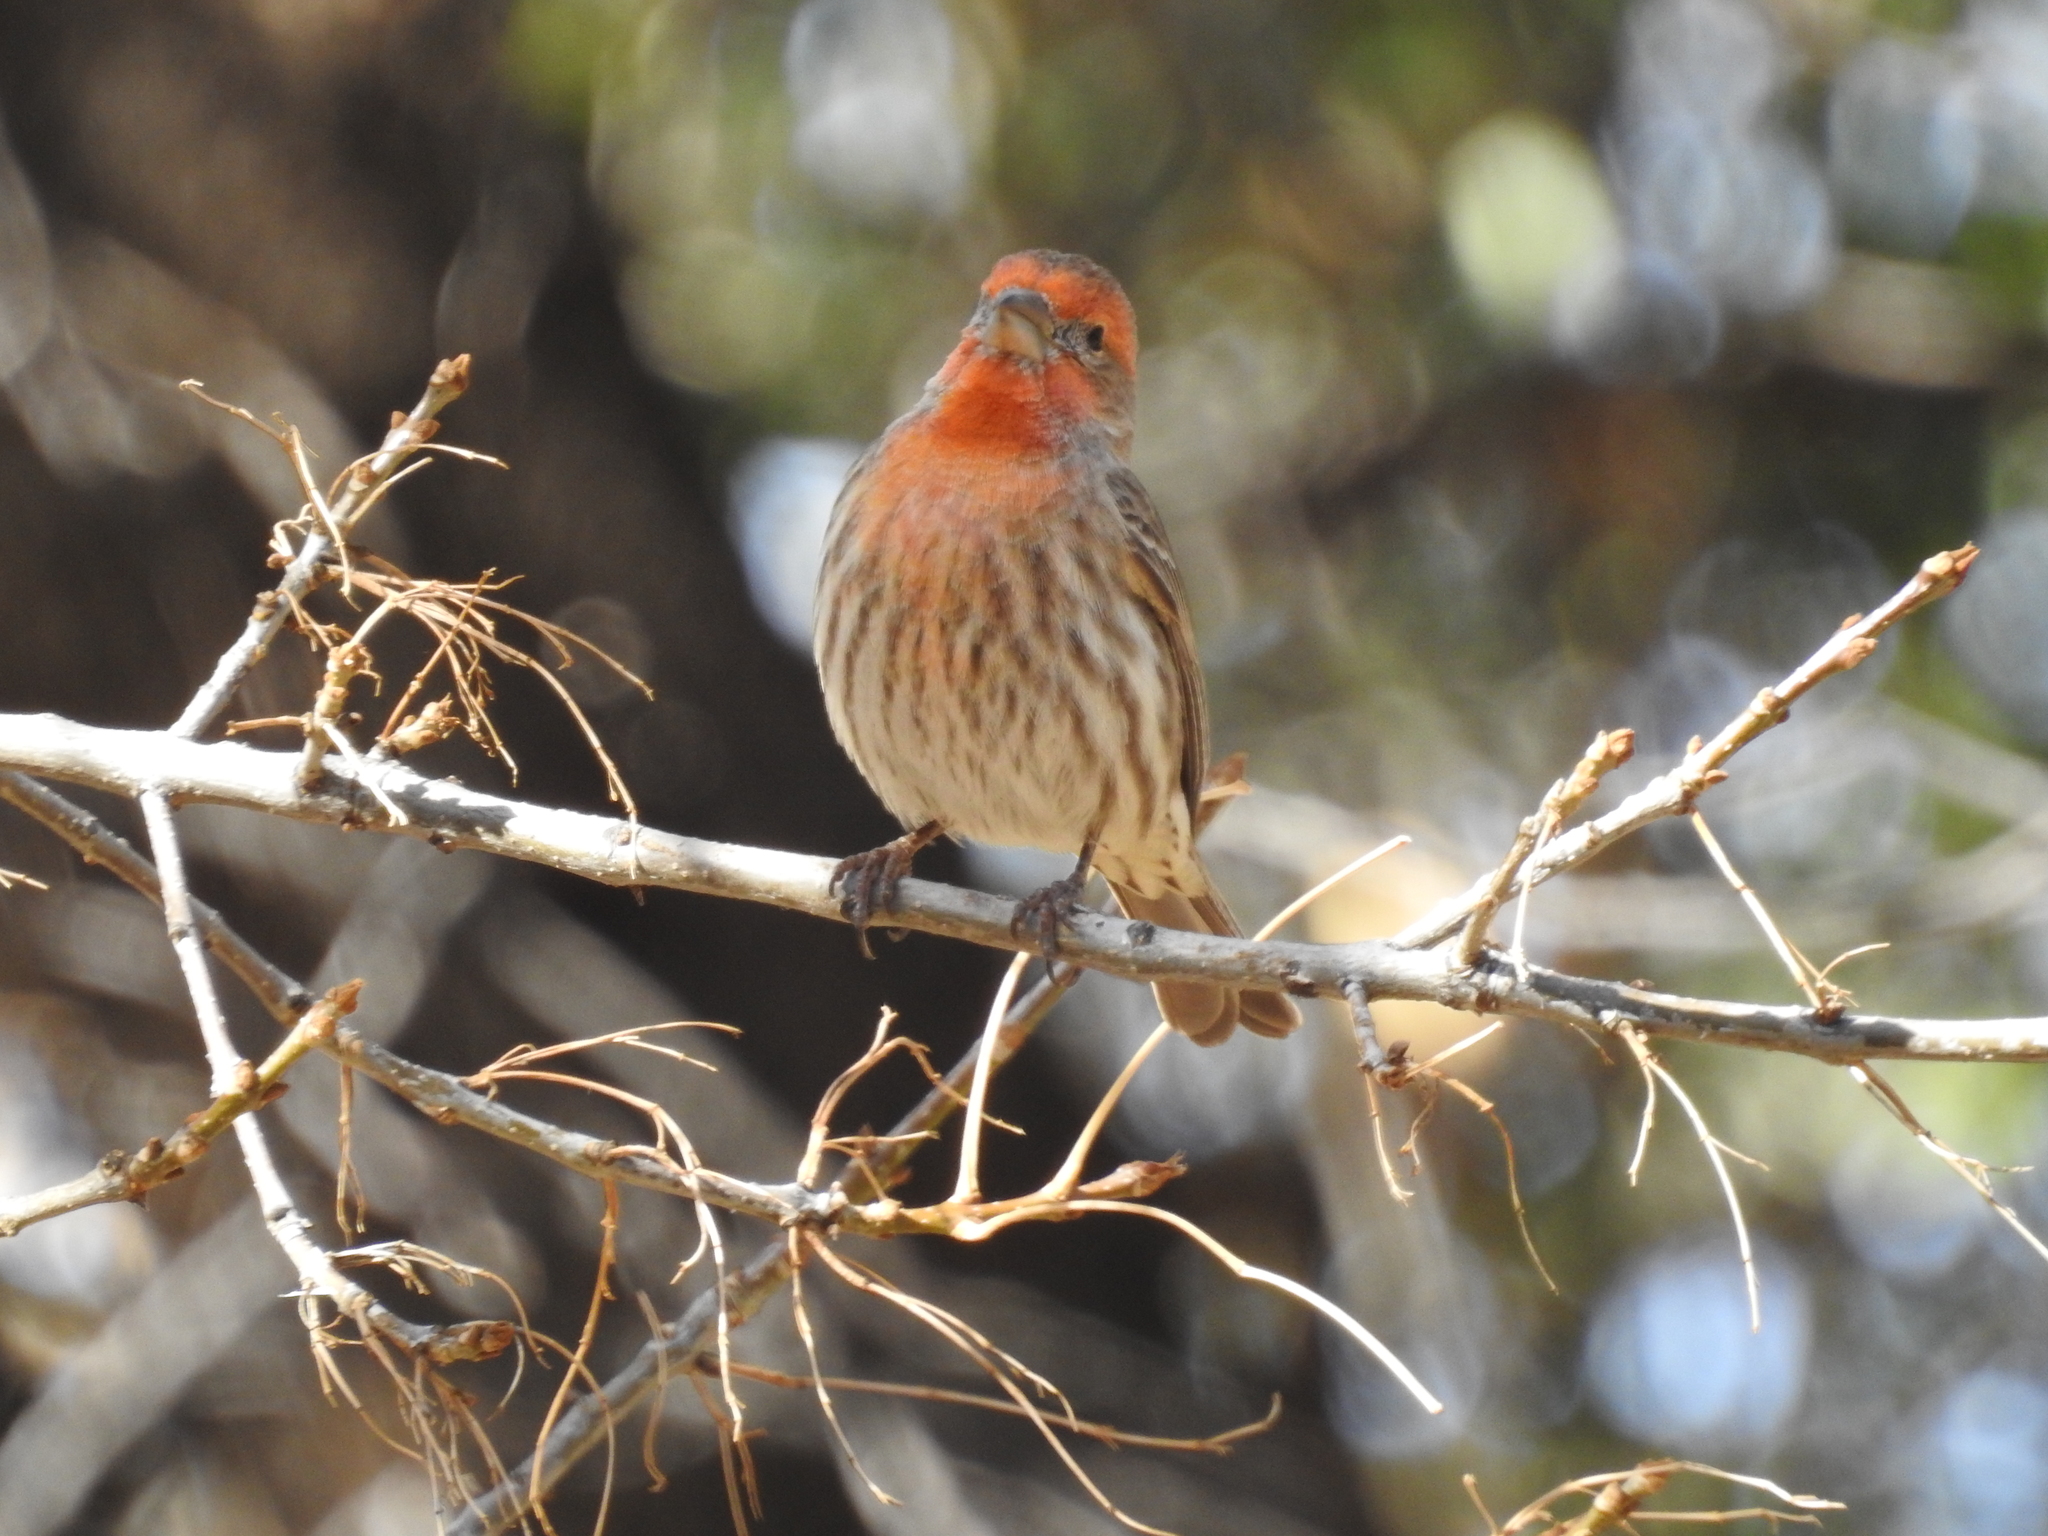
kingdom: Animalia
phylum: Chordata
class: Aves
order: Passeriformes
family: Fringillidae
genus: Haemorhous
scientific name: Haemorhous mexicanus
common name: House finch
